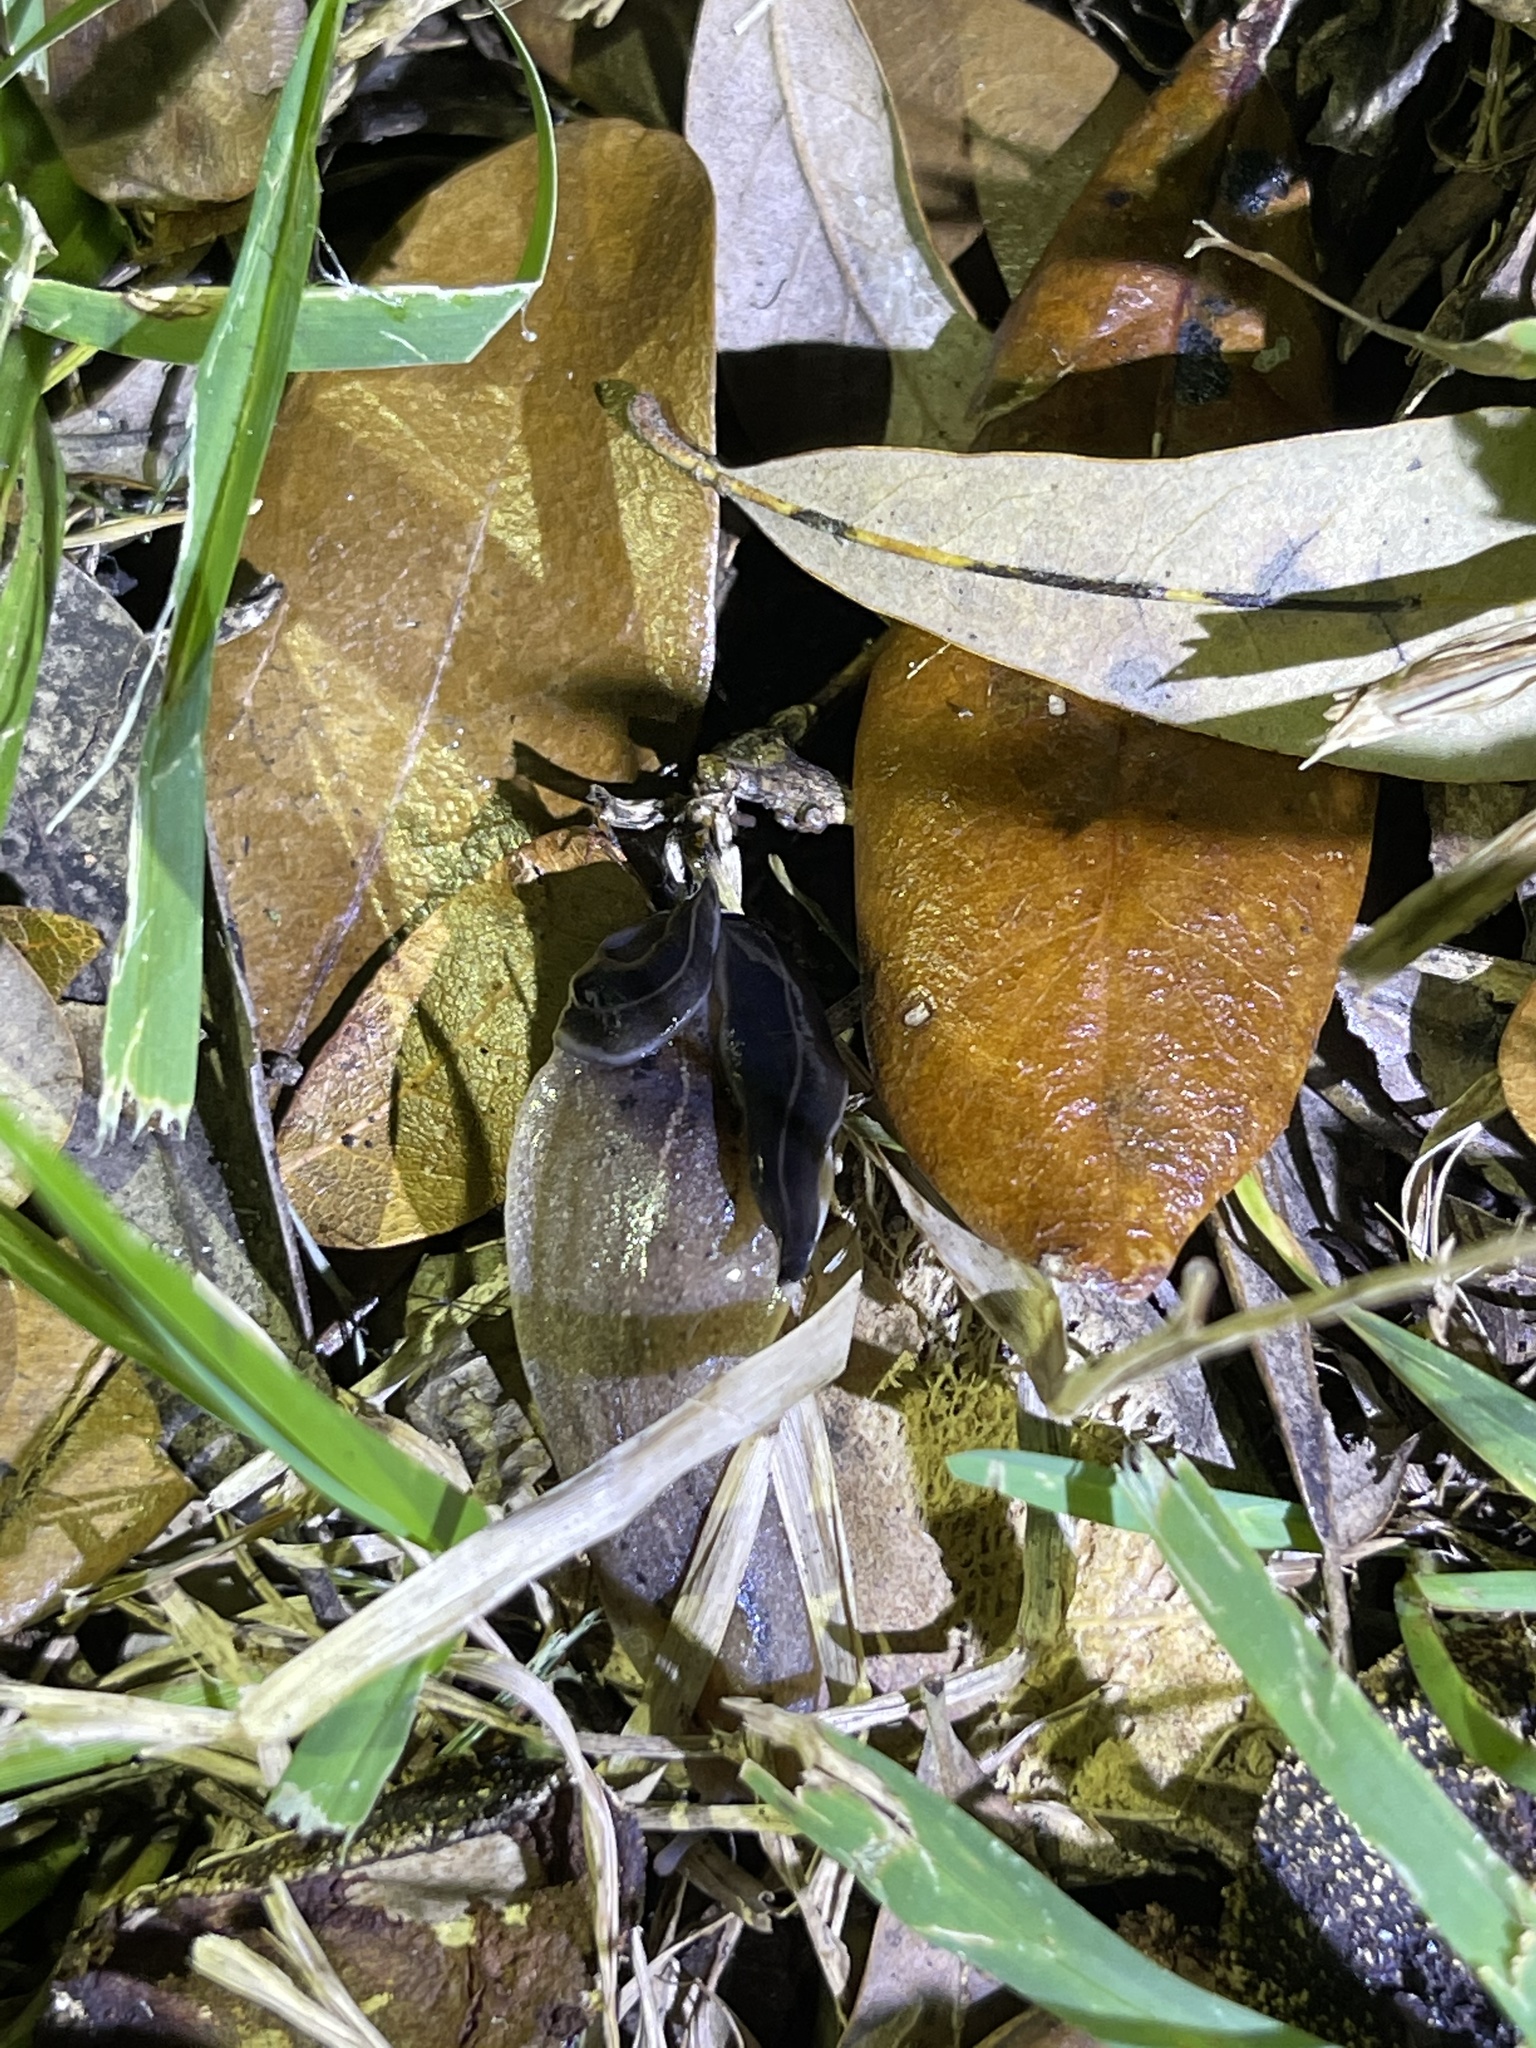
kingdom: Animalia
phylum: Mollusca
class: Gastropoda
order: Systellommatophora
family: Veronicellidae
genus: Leidyula
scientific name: Leidyula floridana
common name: Florida leatherleaf
